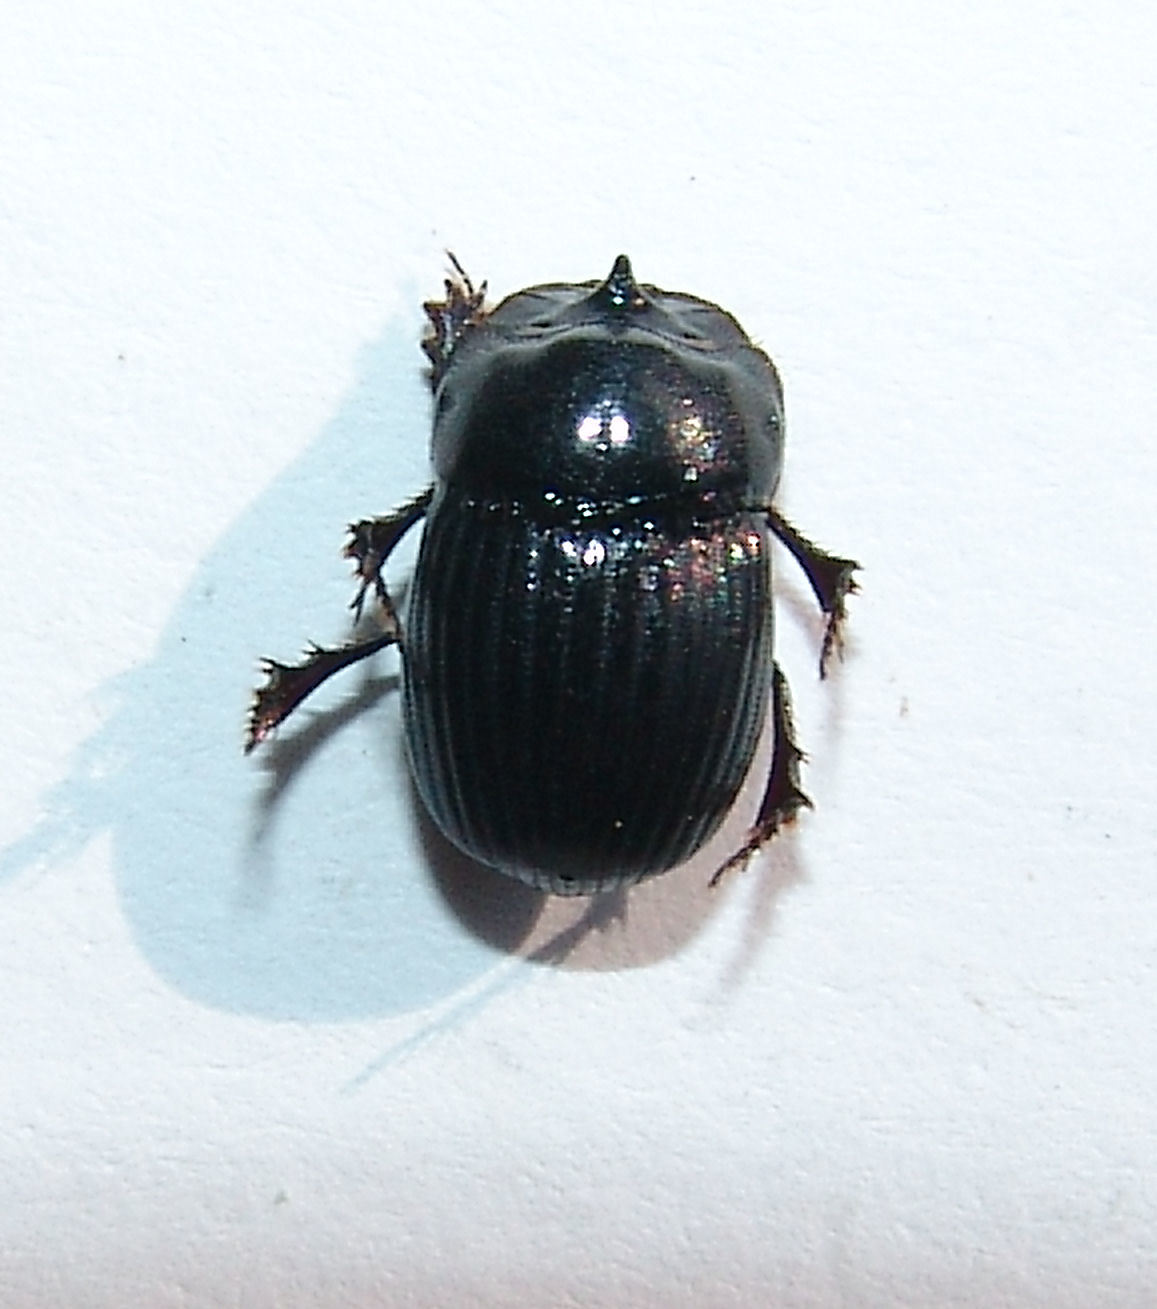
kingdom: Animalia
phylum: Arthropoda
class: Insecta
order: Coleoptera
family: Scarabaeidae
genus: Copris
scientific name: Copris minutus
